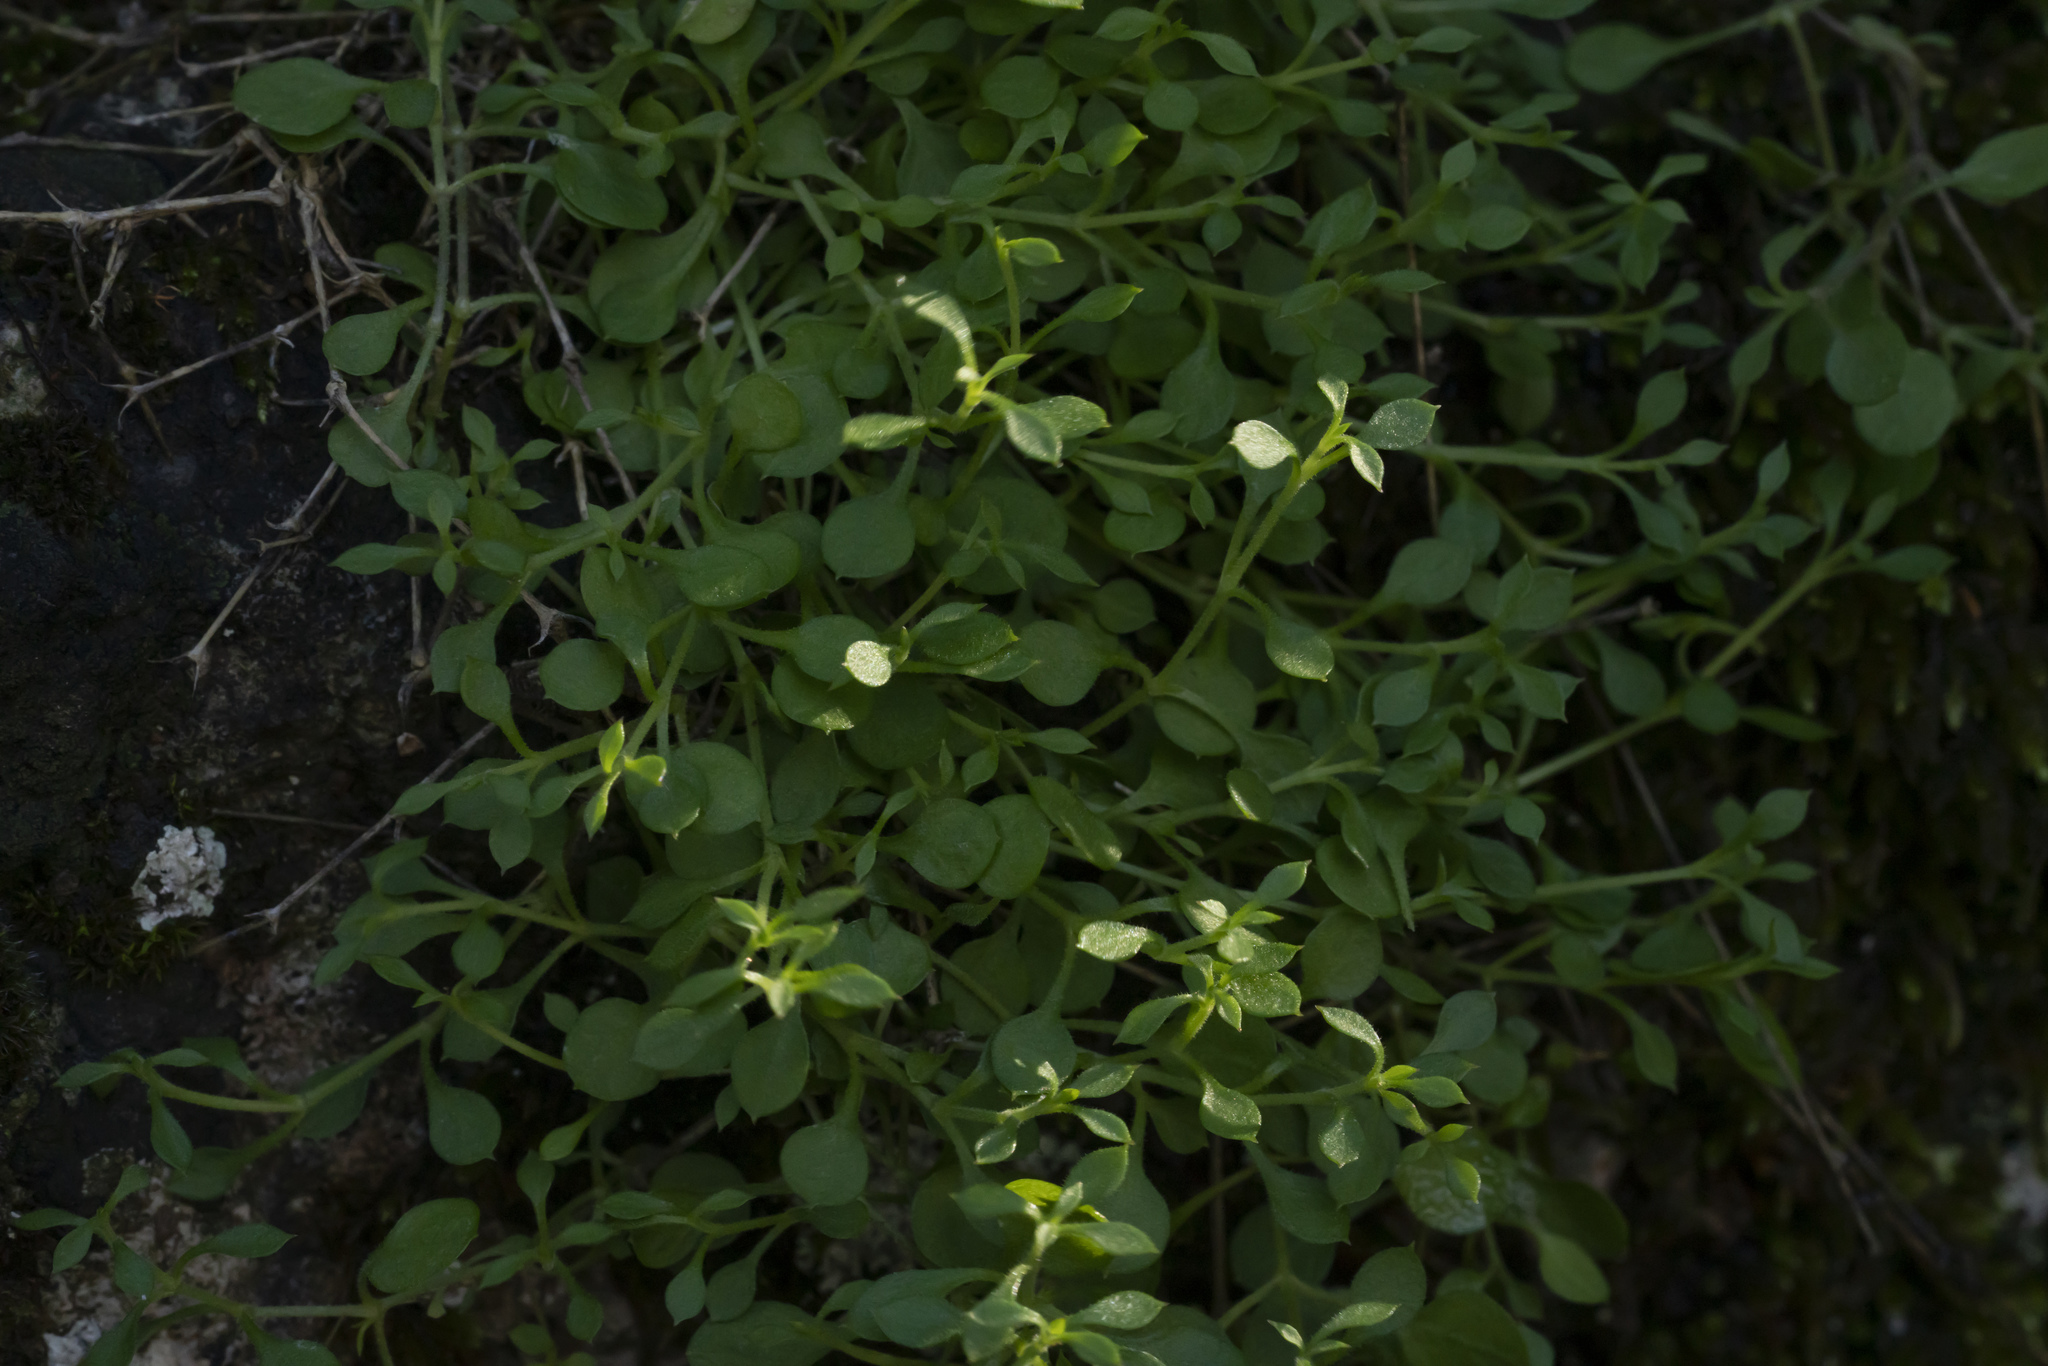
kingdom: Plantae
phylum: Tracheophyta
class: Magnoliopsida
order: Caryophyllales
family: Caryophyllaceae
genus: Arenaria
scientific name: Arenaria
